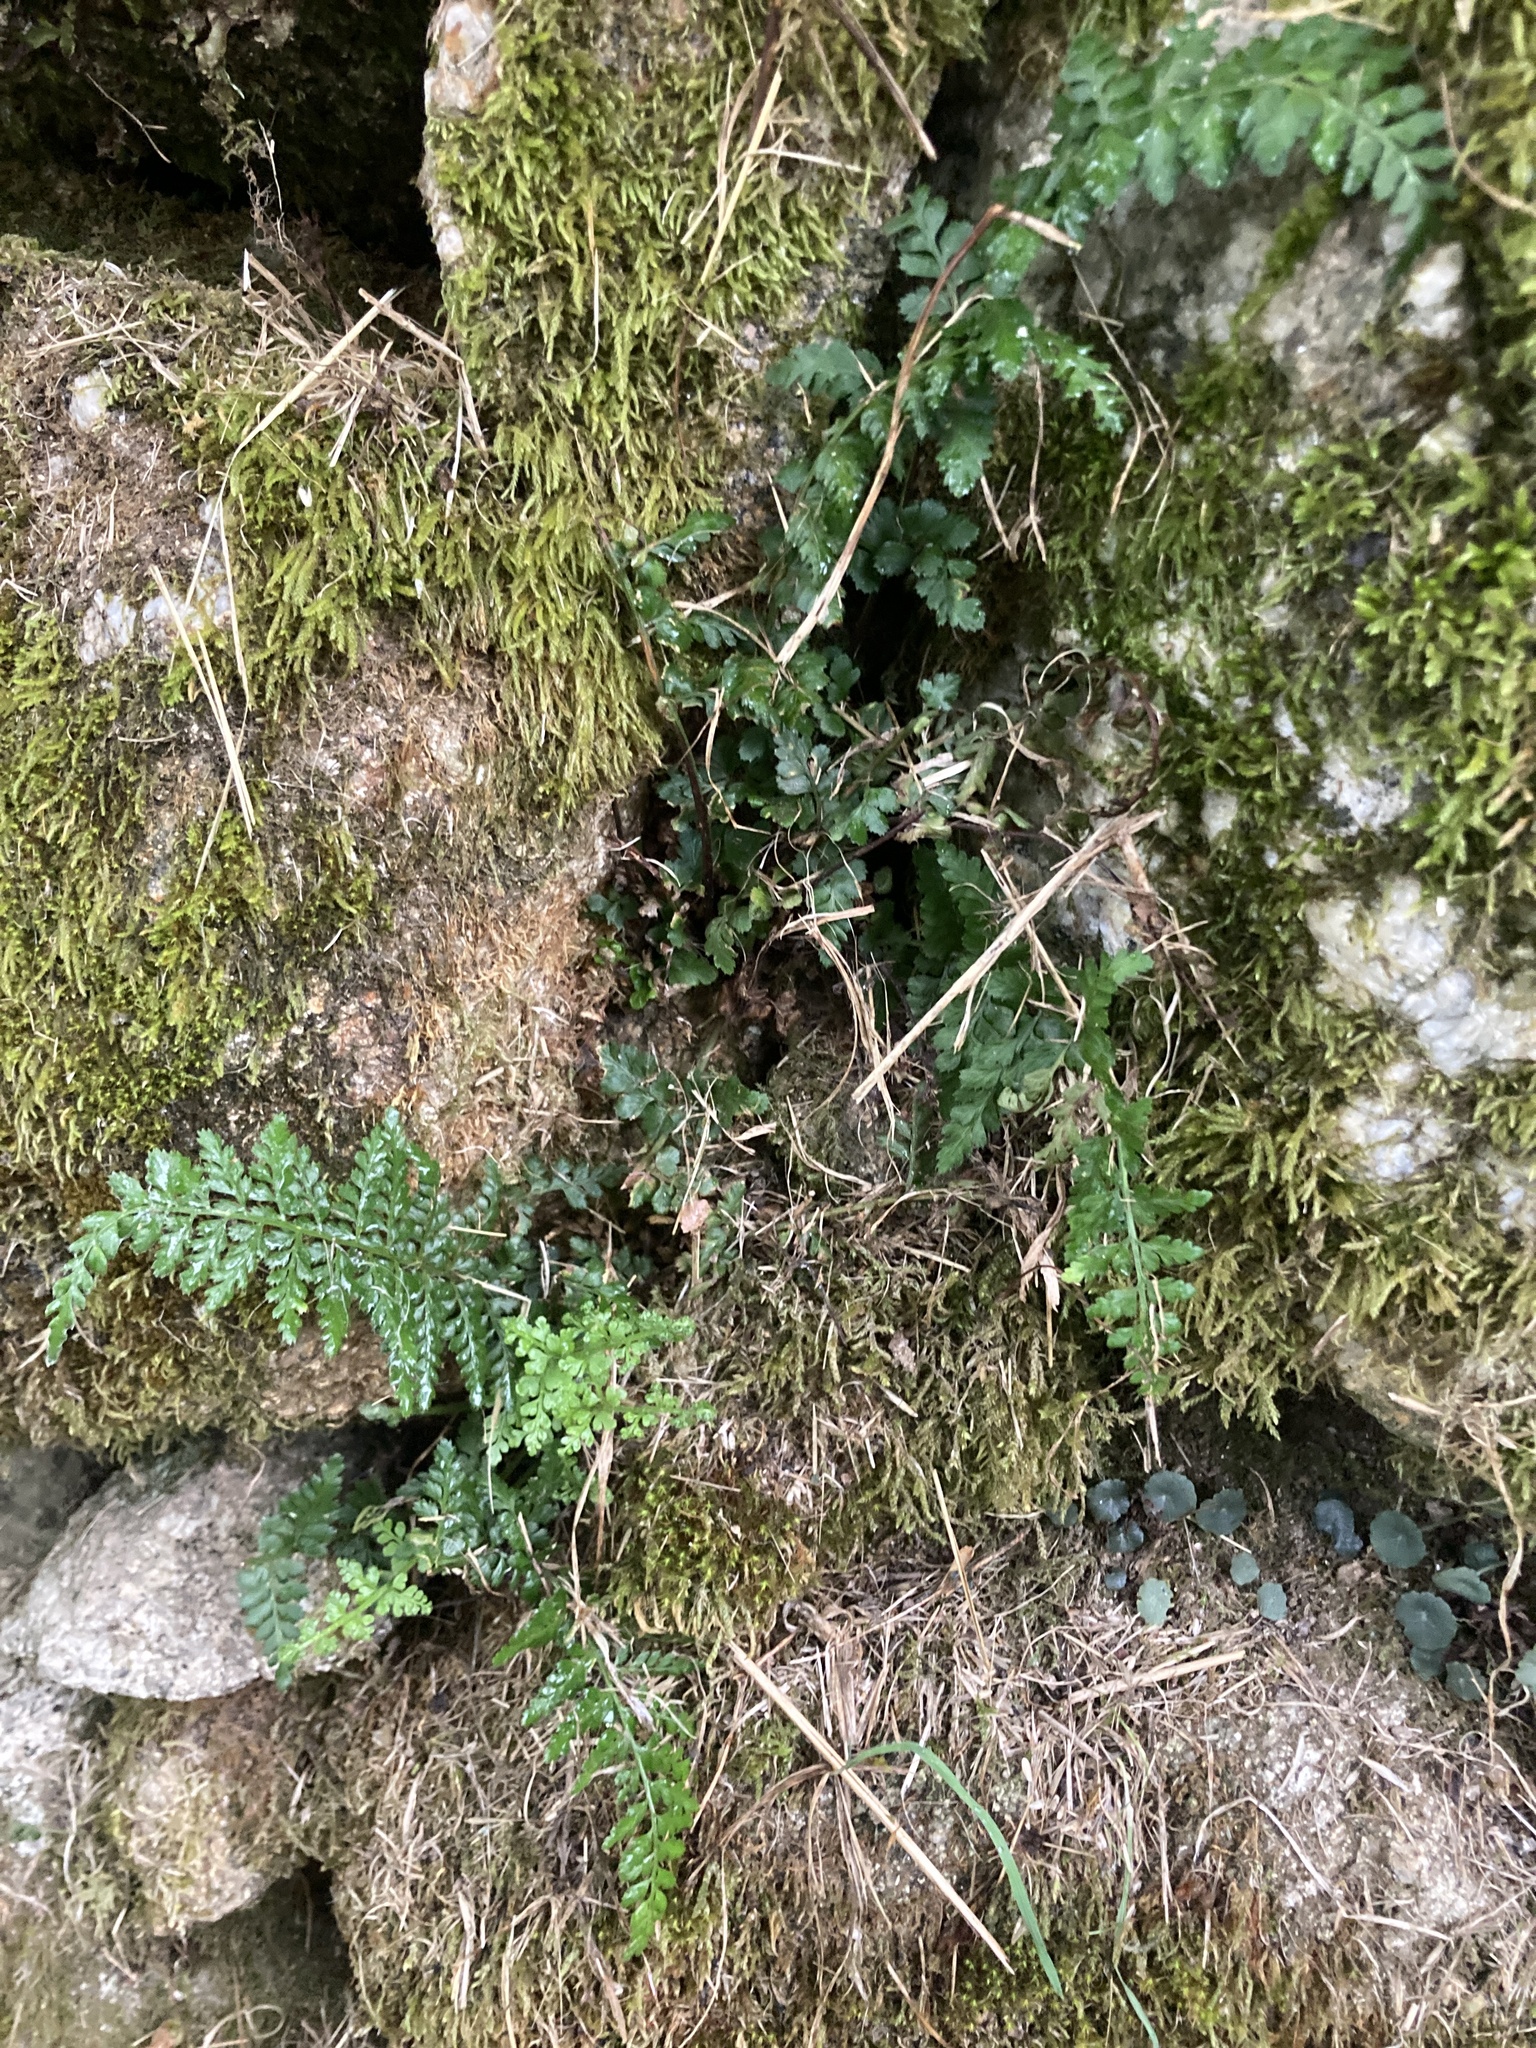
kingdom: Plantae
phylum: Tracheophyta
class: Polypodiopsida
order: Polypodiales
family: Aspleniaceae
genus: Asplenium
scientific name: Asplenium obovatum
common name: Lanceolate spleenwort
